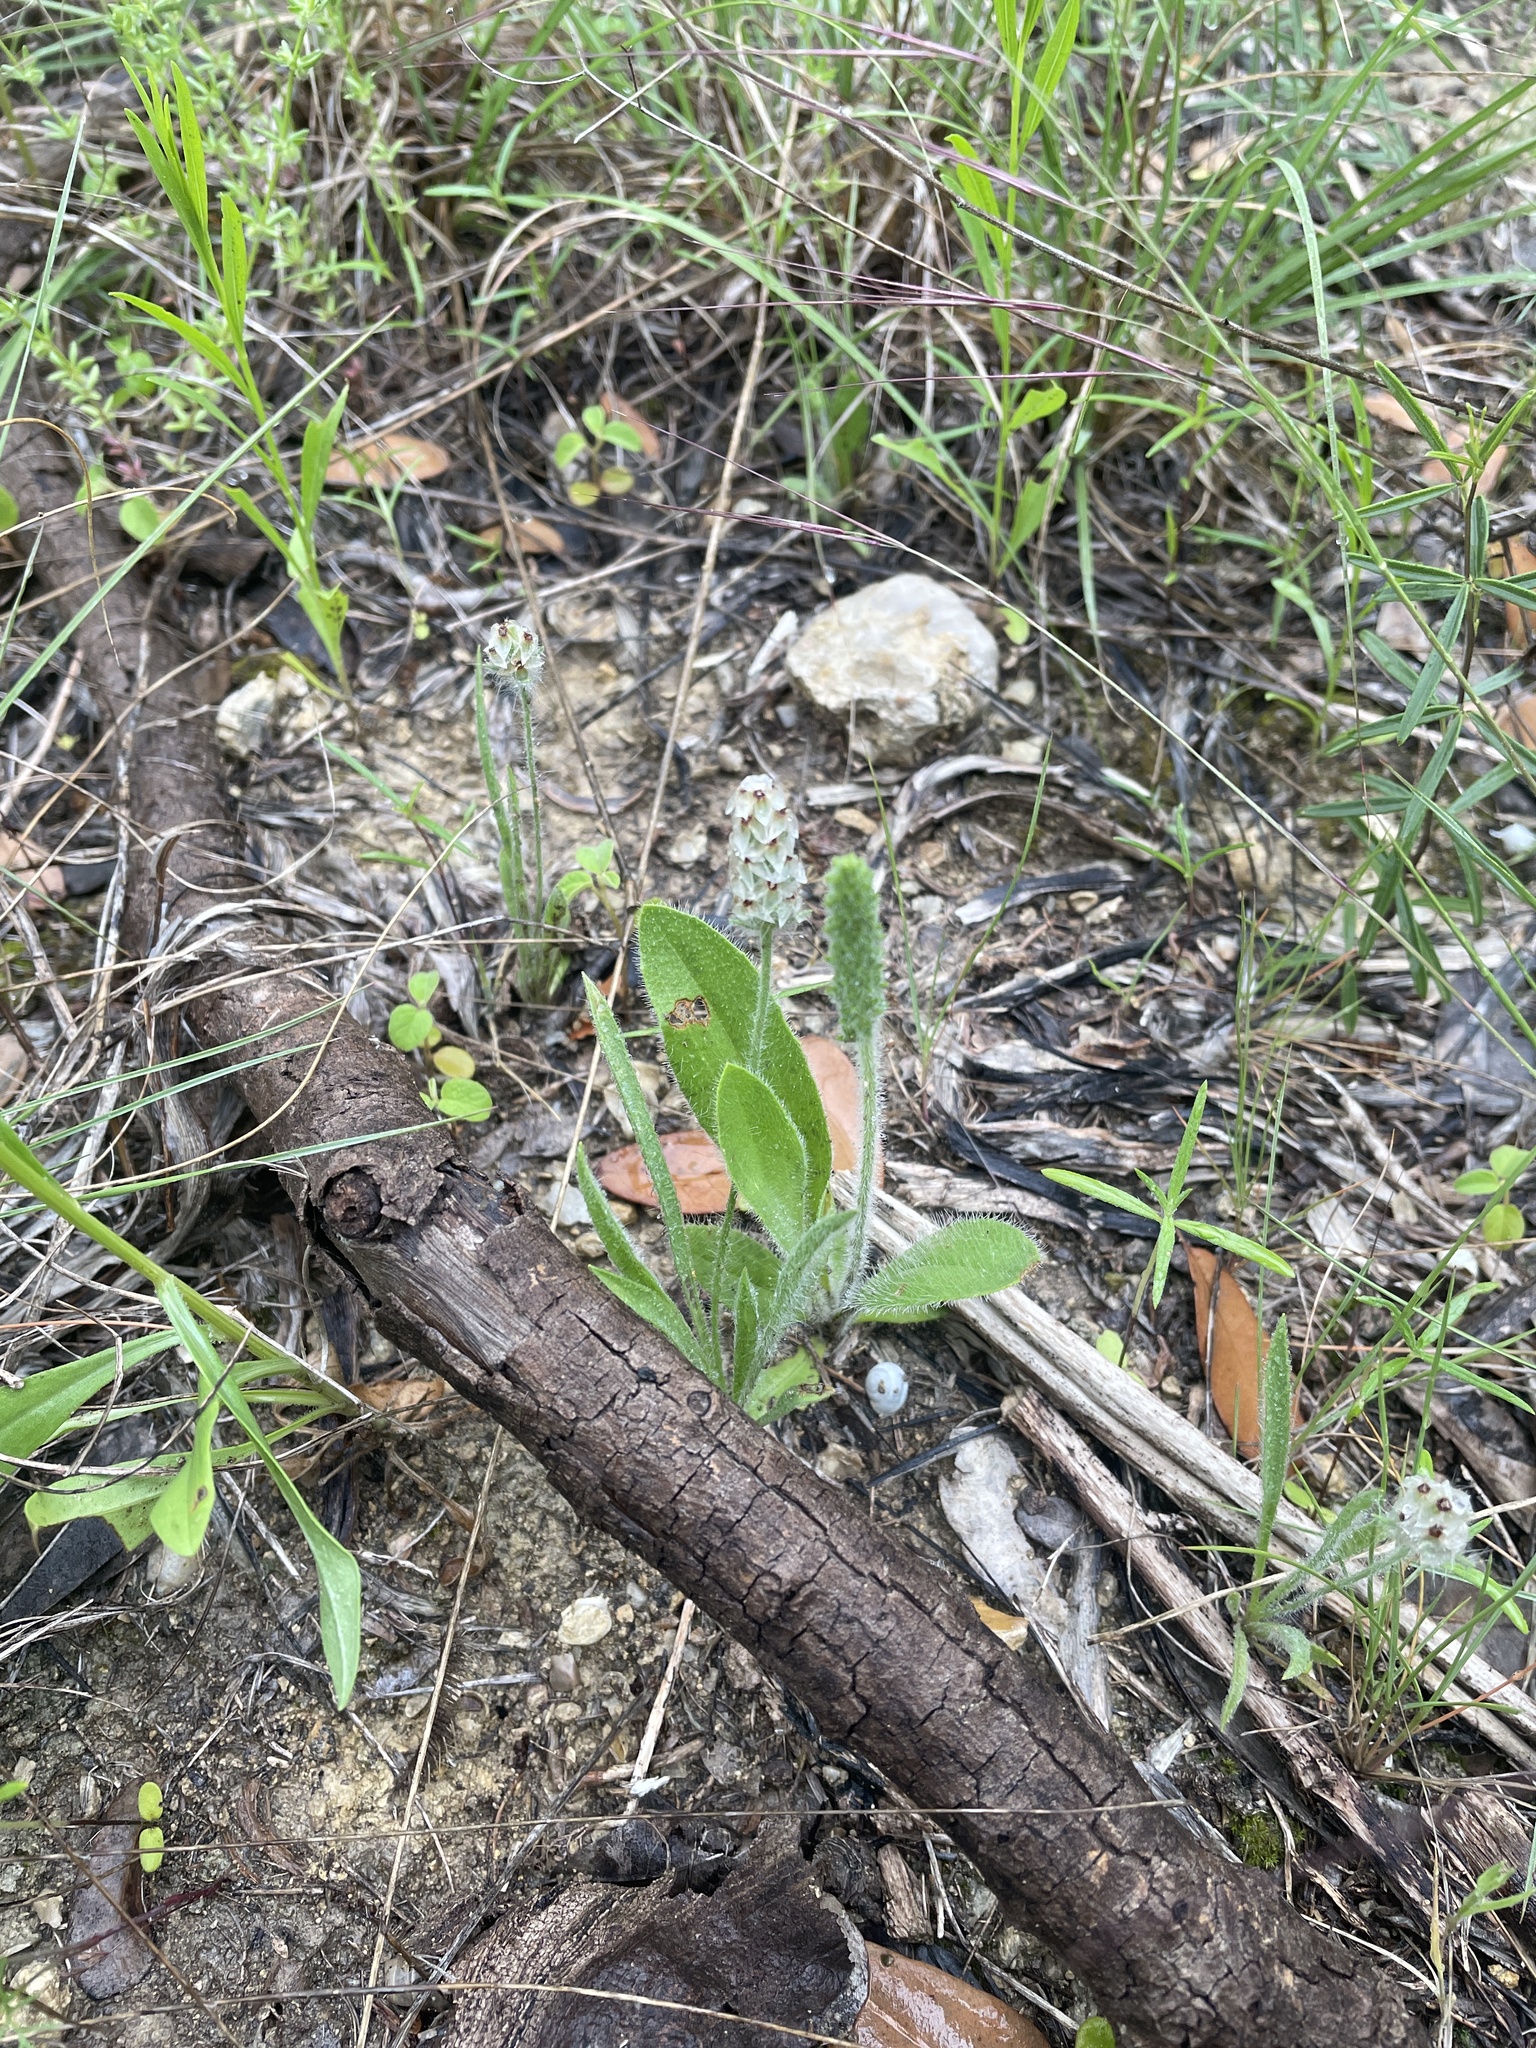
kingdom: Plantae
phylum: Tracheophyta
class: Magnoliopsida
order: Lamiales
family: Plantaginaceae
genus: Plantago
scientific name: Plantago helleri
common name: Heller's plantain
